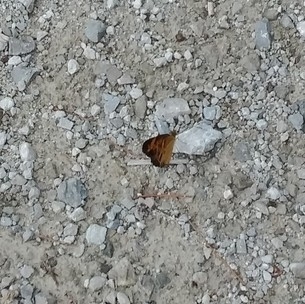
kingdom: Animalia
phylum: Arthropoda
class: Insecta
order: Lepidoptera
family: Nymphalidae
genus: Phyciodes
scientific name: Phyciodes
